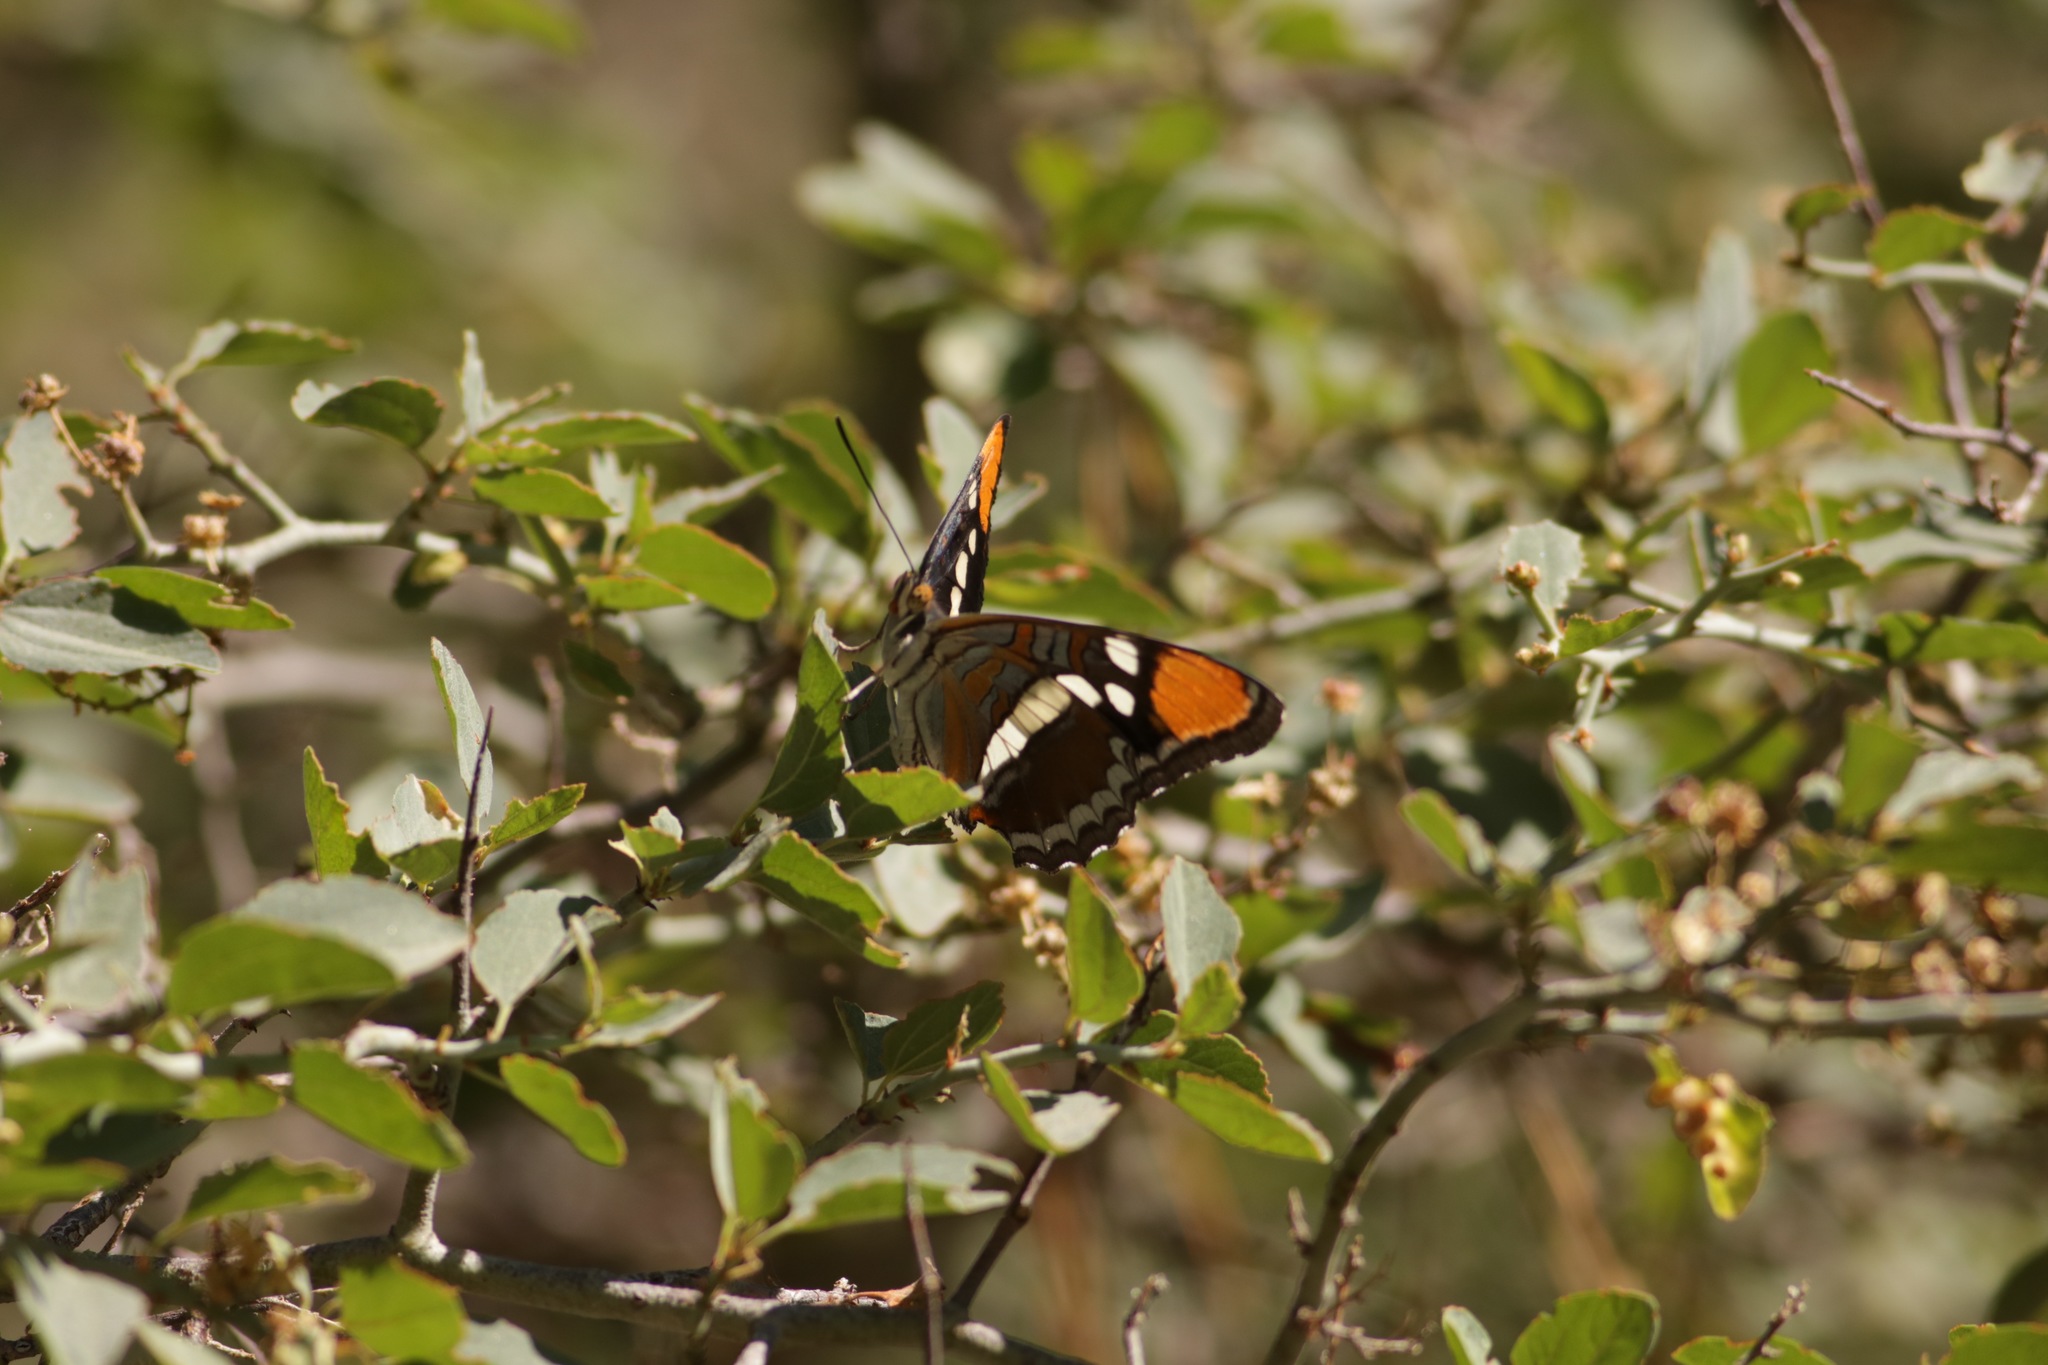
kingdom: Animalia
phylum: Arthropoda
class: Insecta
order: Lepidoptera
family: Nymphalidae
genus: Limenitis
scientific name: Limenitis bredowii
